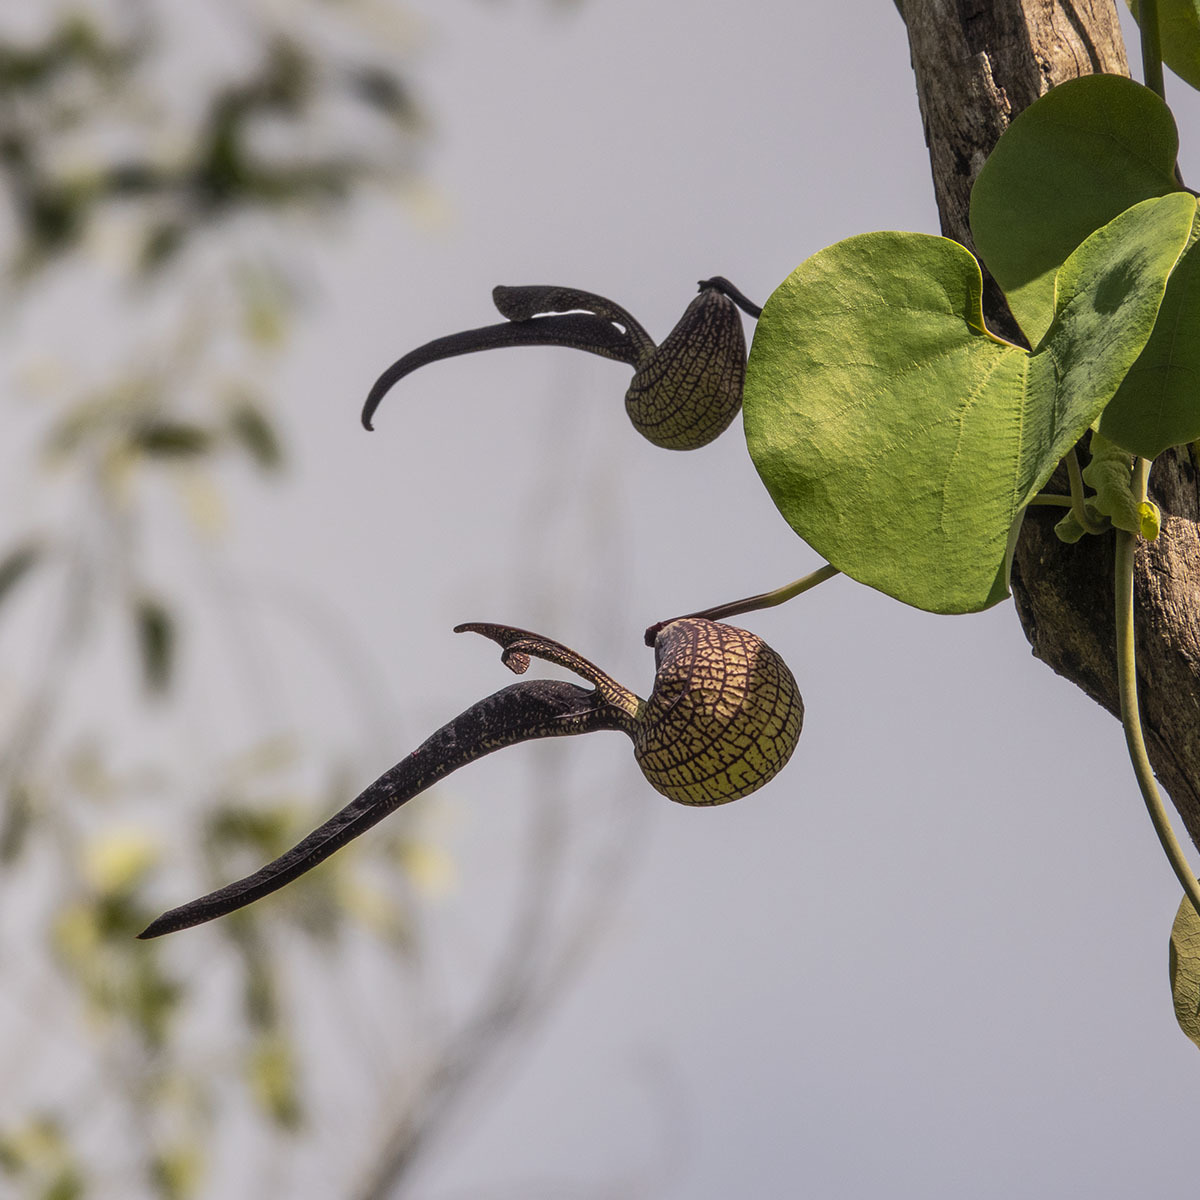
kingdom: Plantae
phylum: Tracheophyta
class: Magnoliopsida
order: Piperales
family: Aristolochiaceae
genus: Aristolochia
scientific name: Aristolochia ringens
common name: Gaping dutchman's pipe
